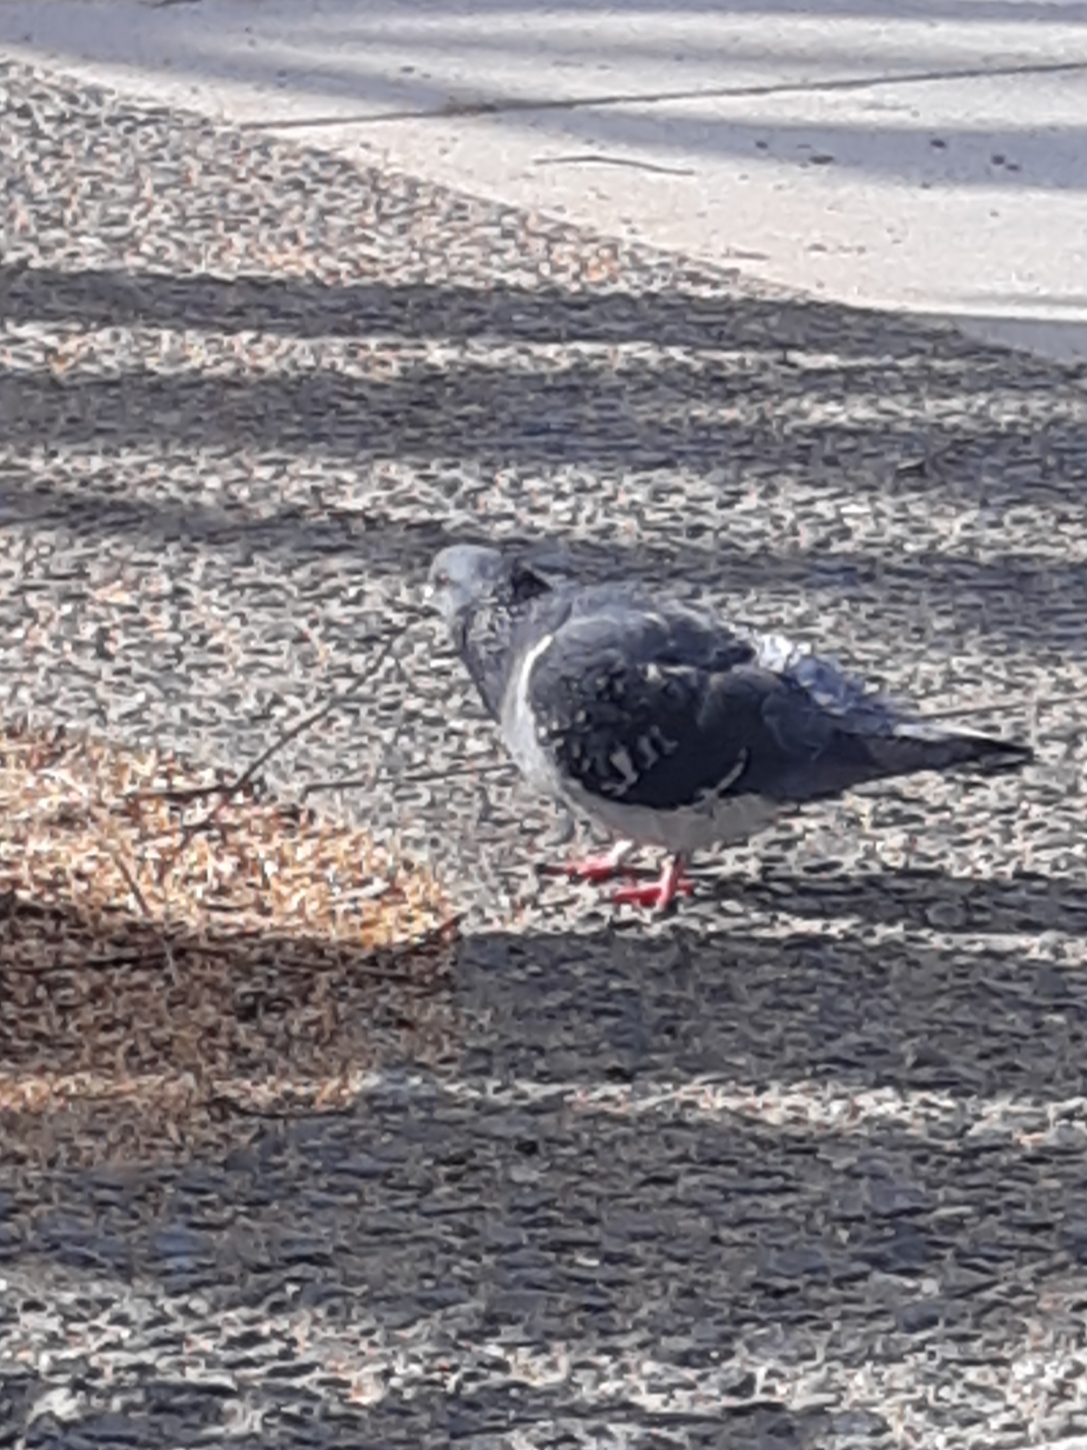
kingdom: Animalia
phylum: Chordata
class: Aves
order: Columbiformes
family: Columbidae
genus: Columba
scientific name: Columba livia
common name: Rock pigeon
